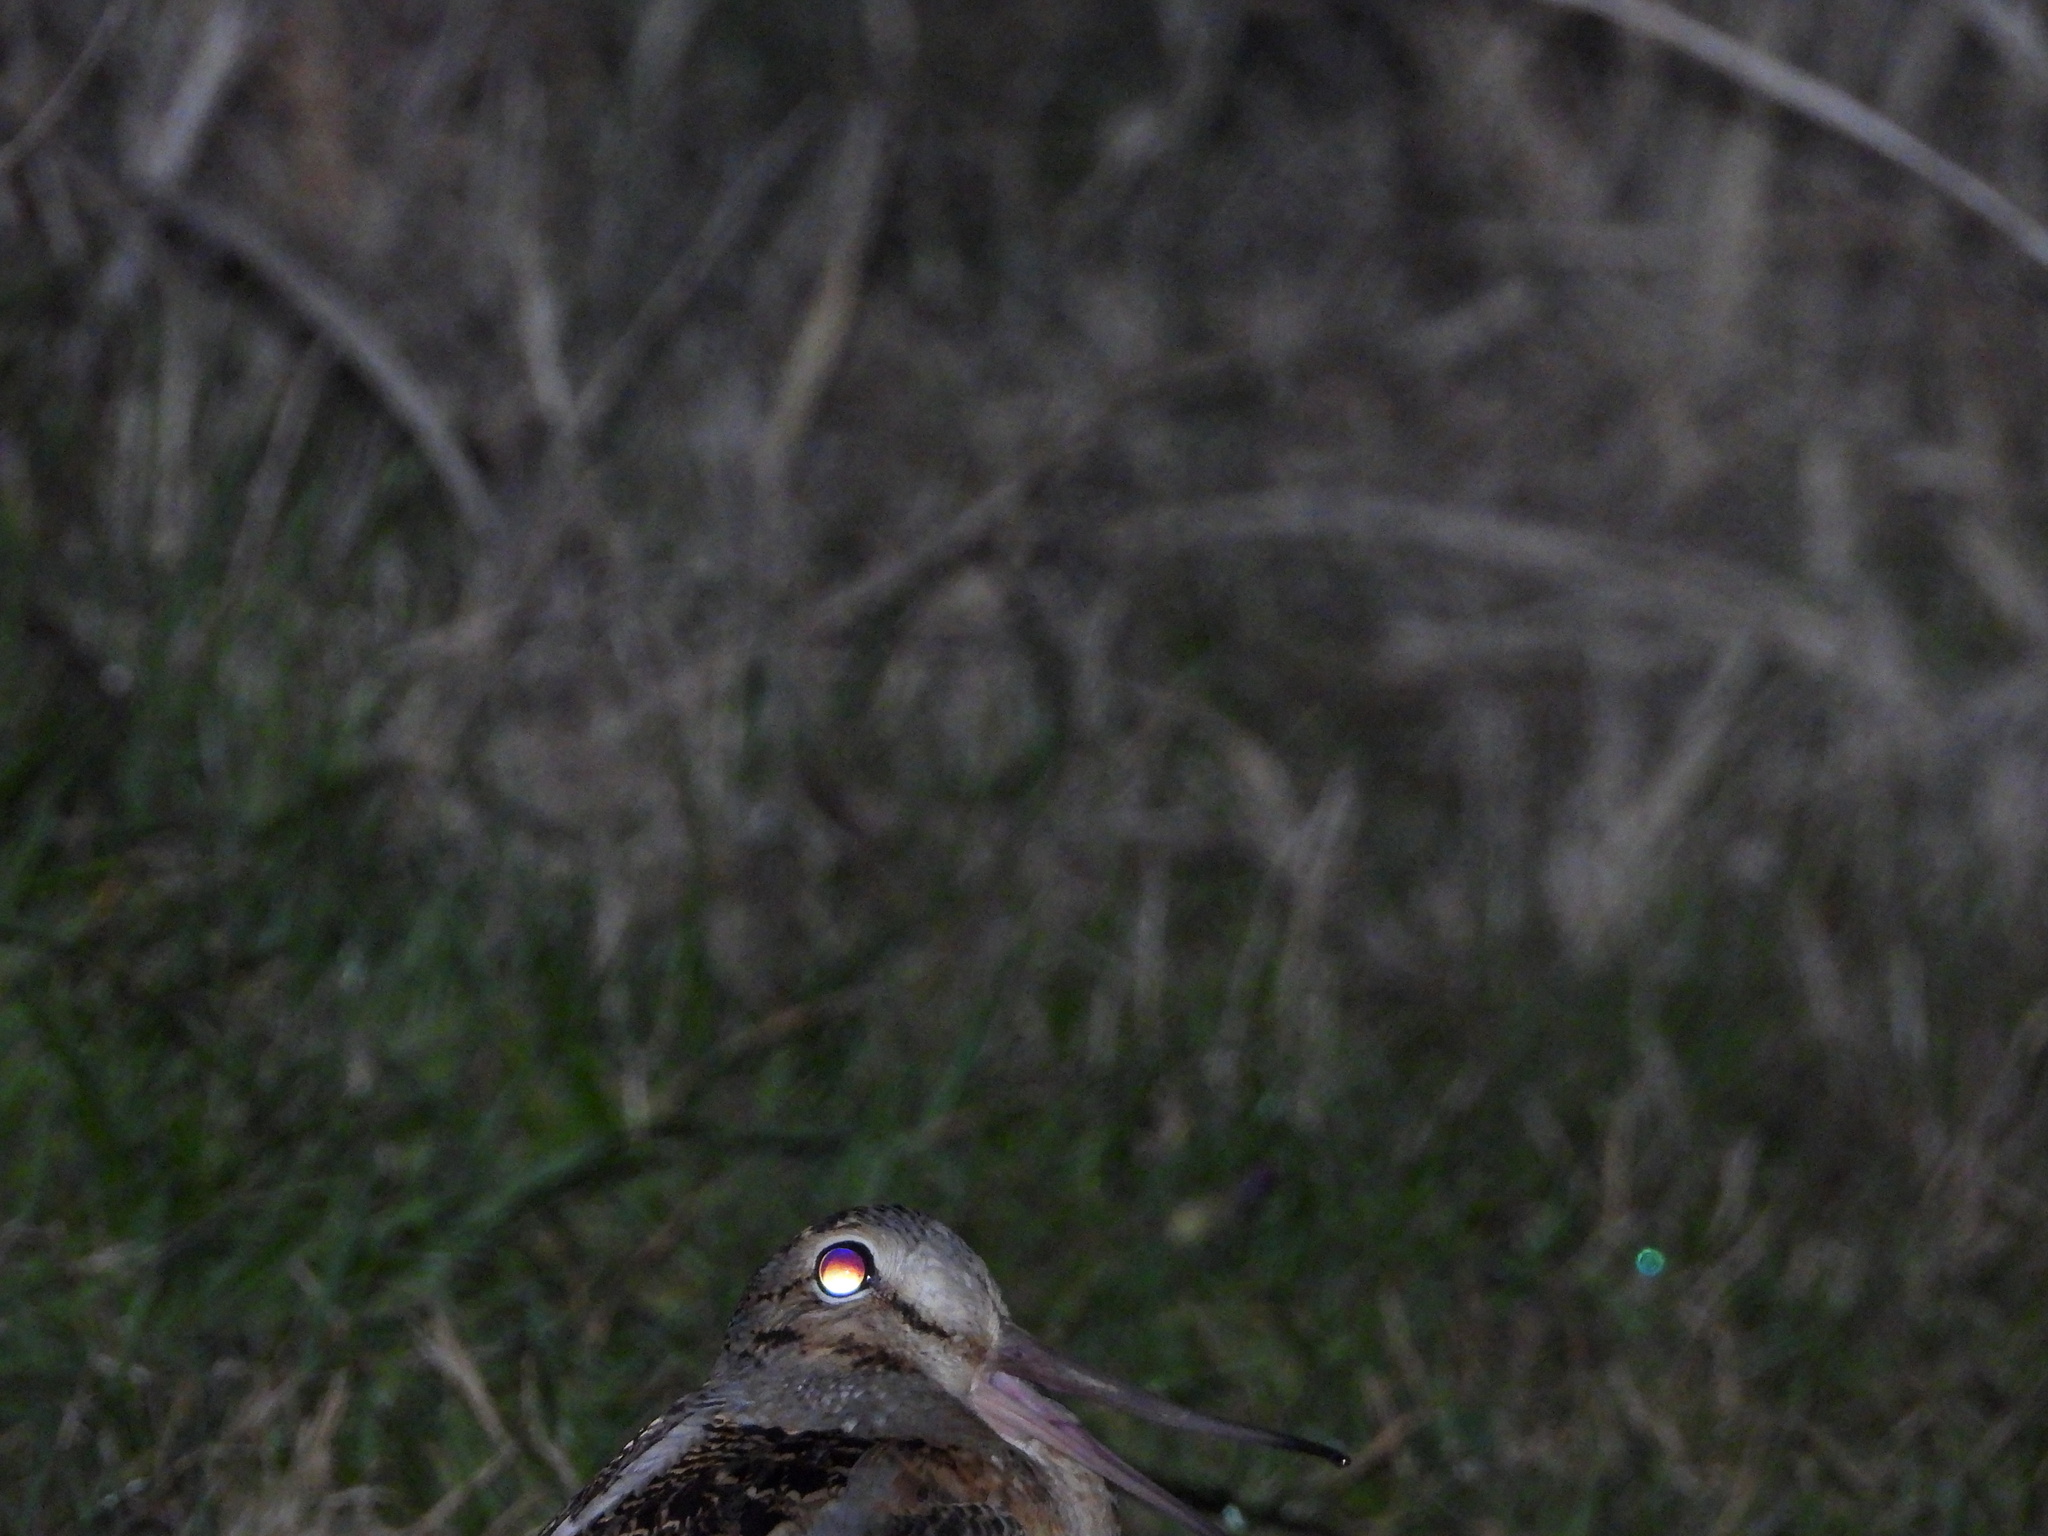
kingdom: Animalia
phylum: Chordata
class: Aves
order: Charadriiformes
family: Scolopacidae
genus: Scolopax
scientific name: Scolopax minor
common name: American woodcock
